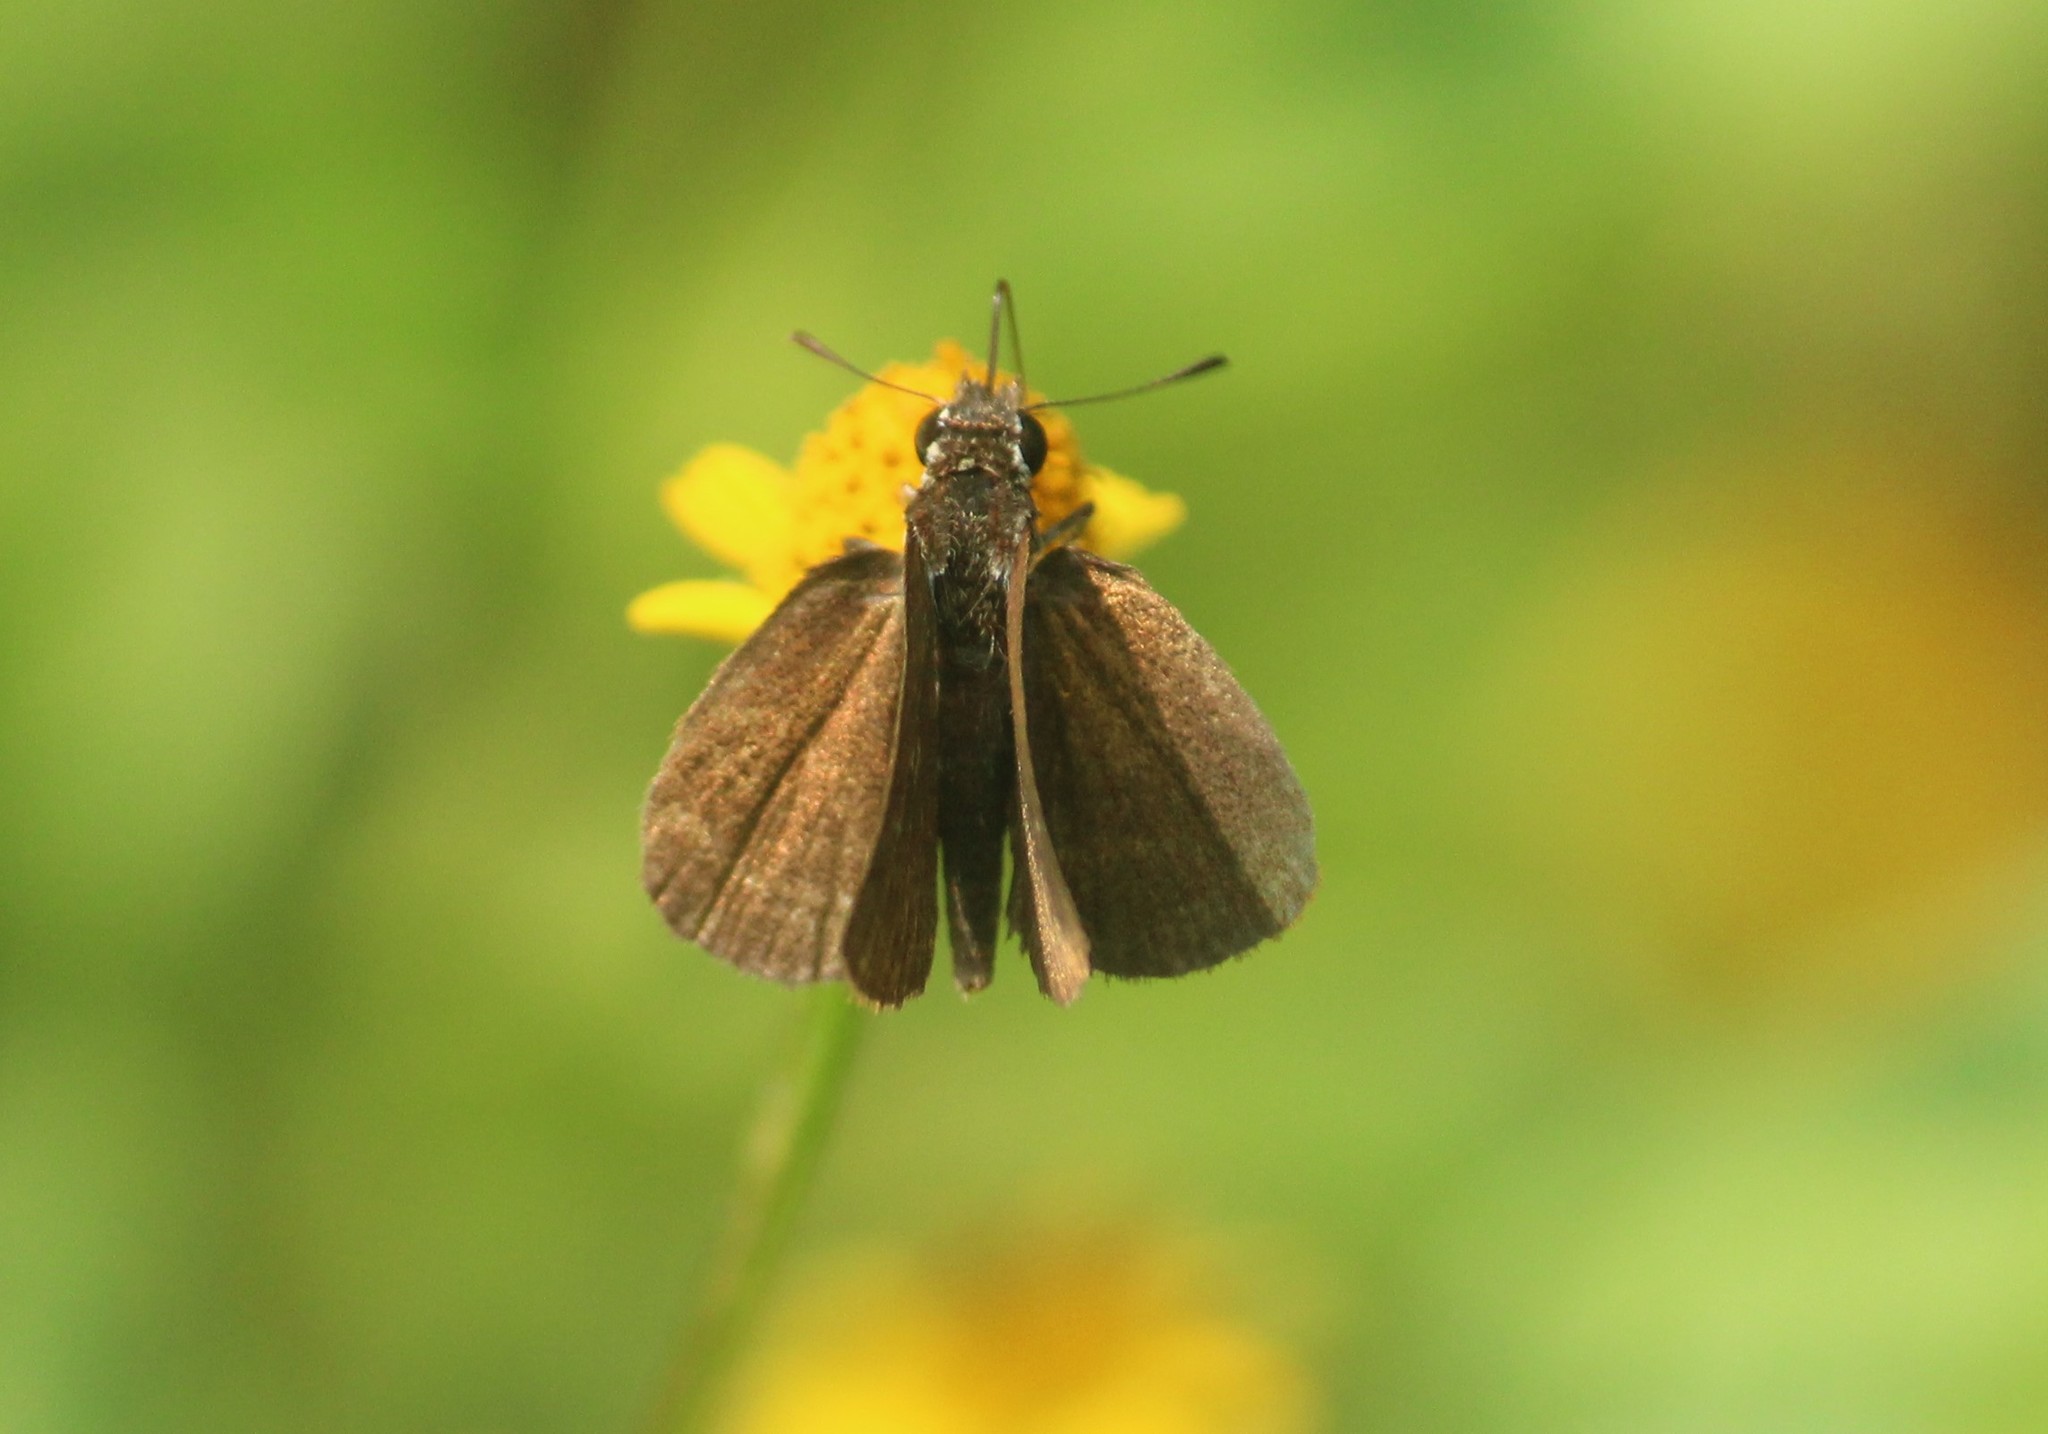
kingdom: Animalia
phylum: Arthropoda
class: Insecta
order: Lepidoptera
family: Hesperiidae
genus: Aeromachus
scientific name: Aeromachus pygmaeus
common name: Pygmy scrub hopper
